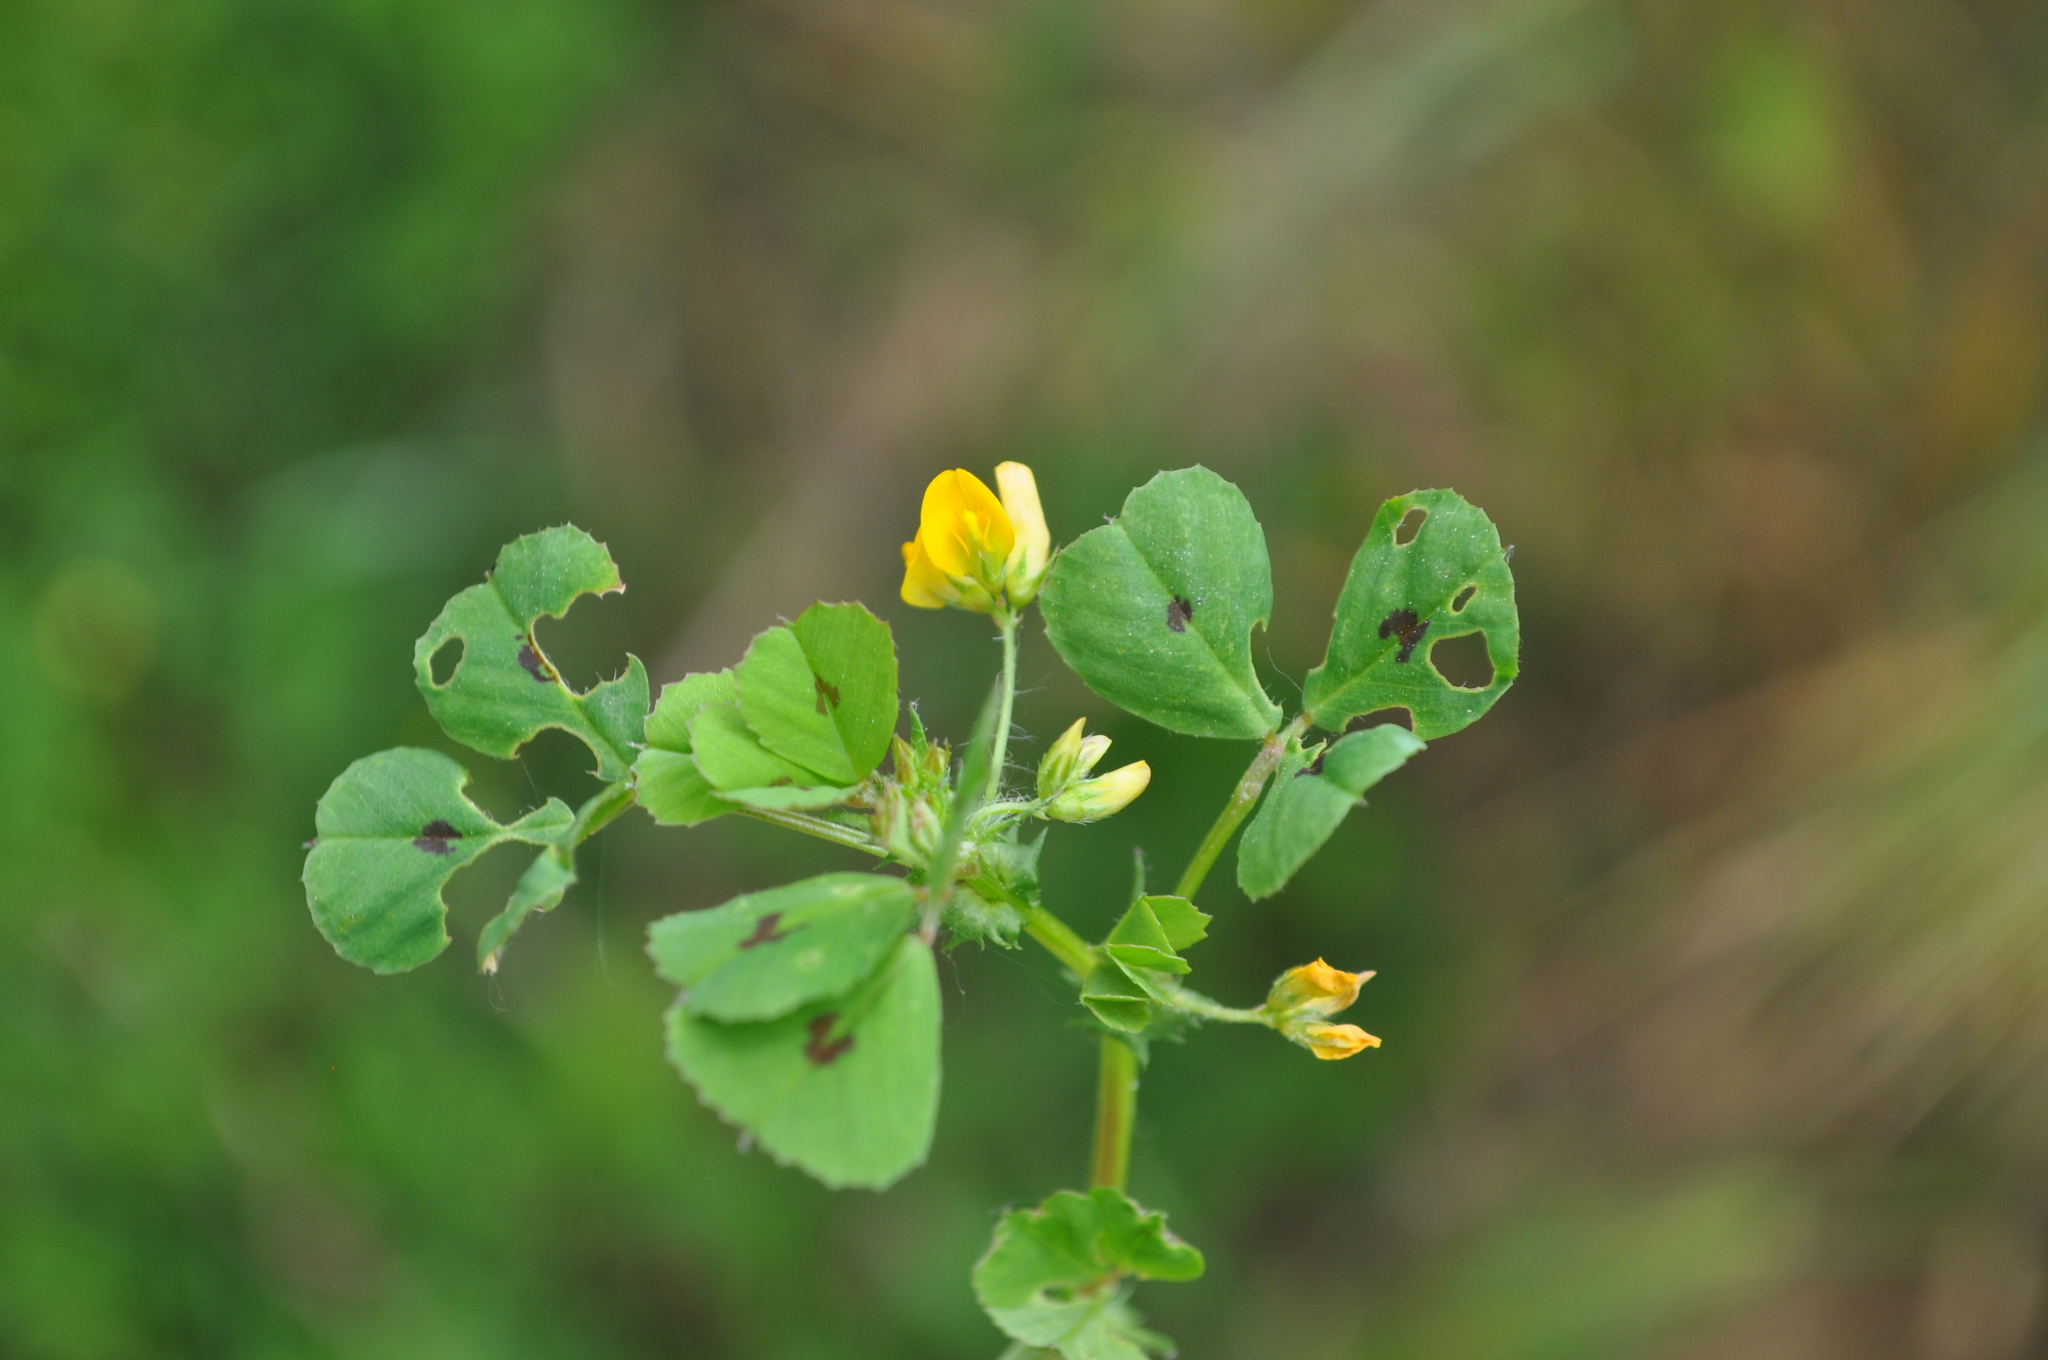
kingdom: Plantae
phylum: Tracheophyta
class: Magnoliopsida
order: Fabales
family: Fabaceae
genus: Medicago
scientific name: Medicago arabica
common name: Spotted medick
